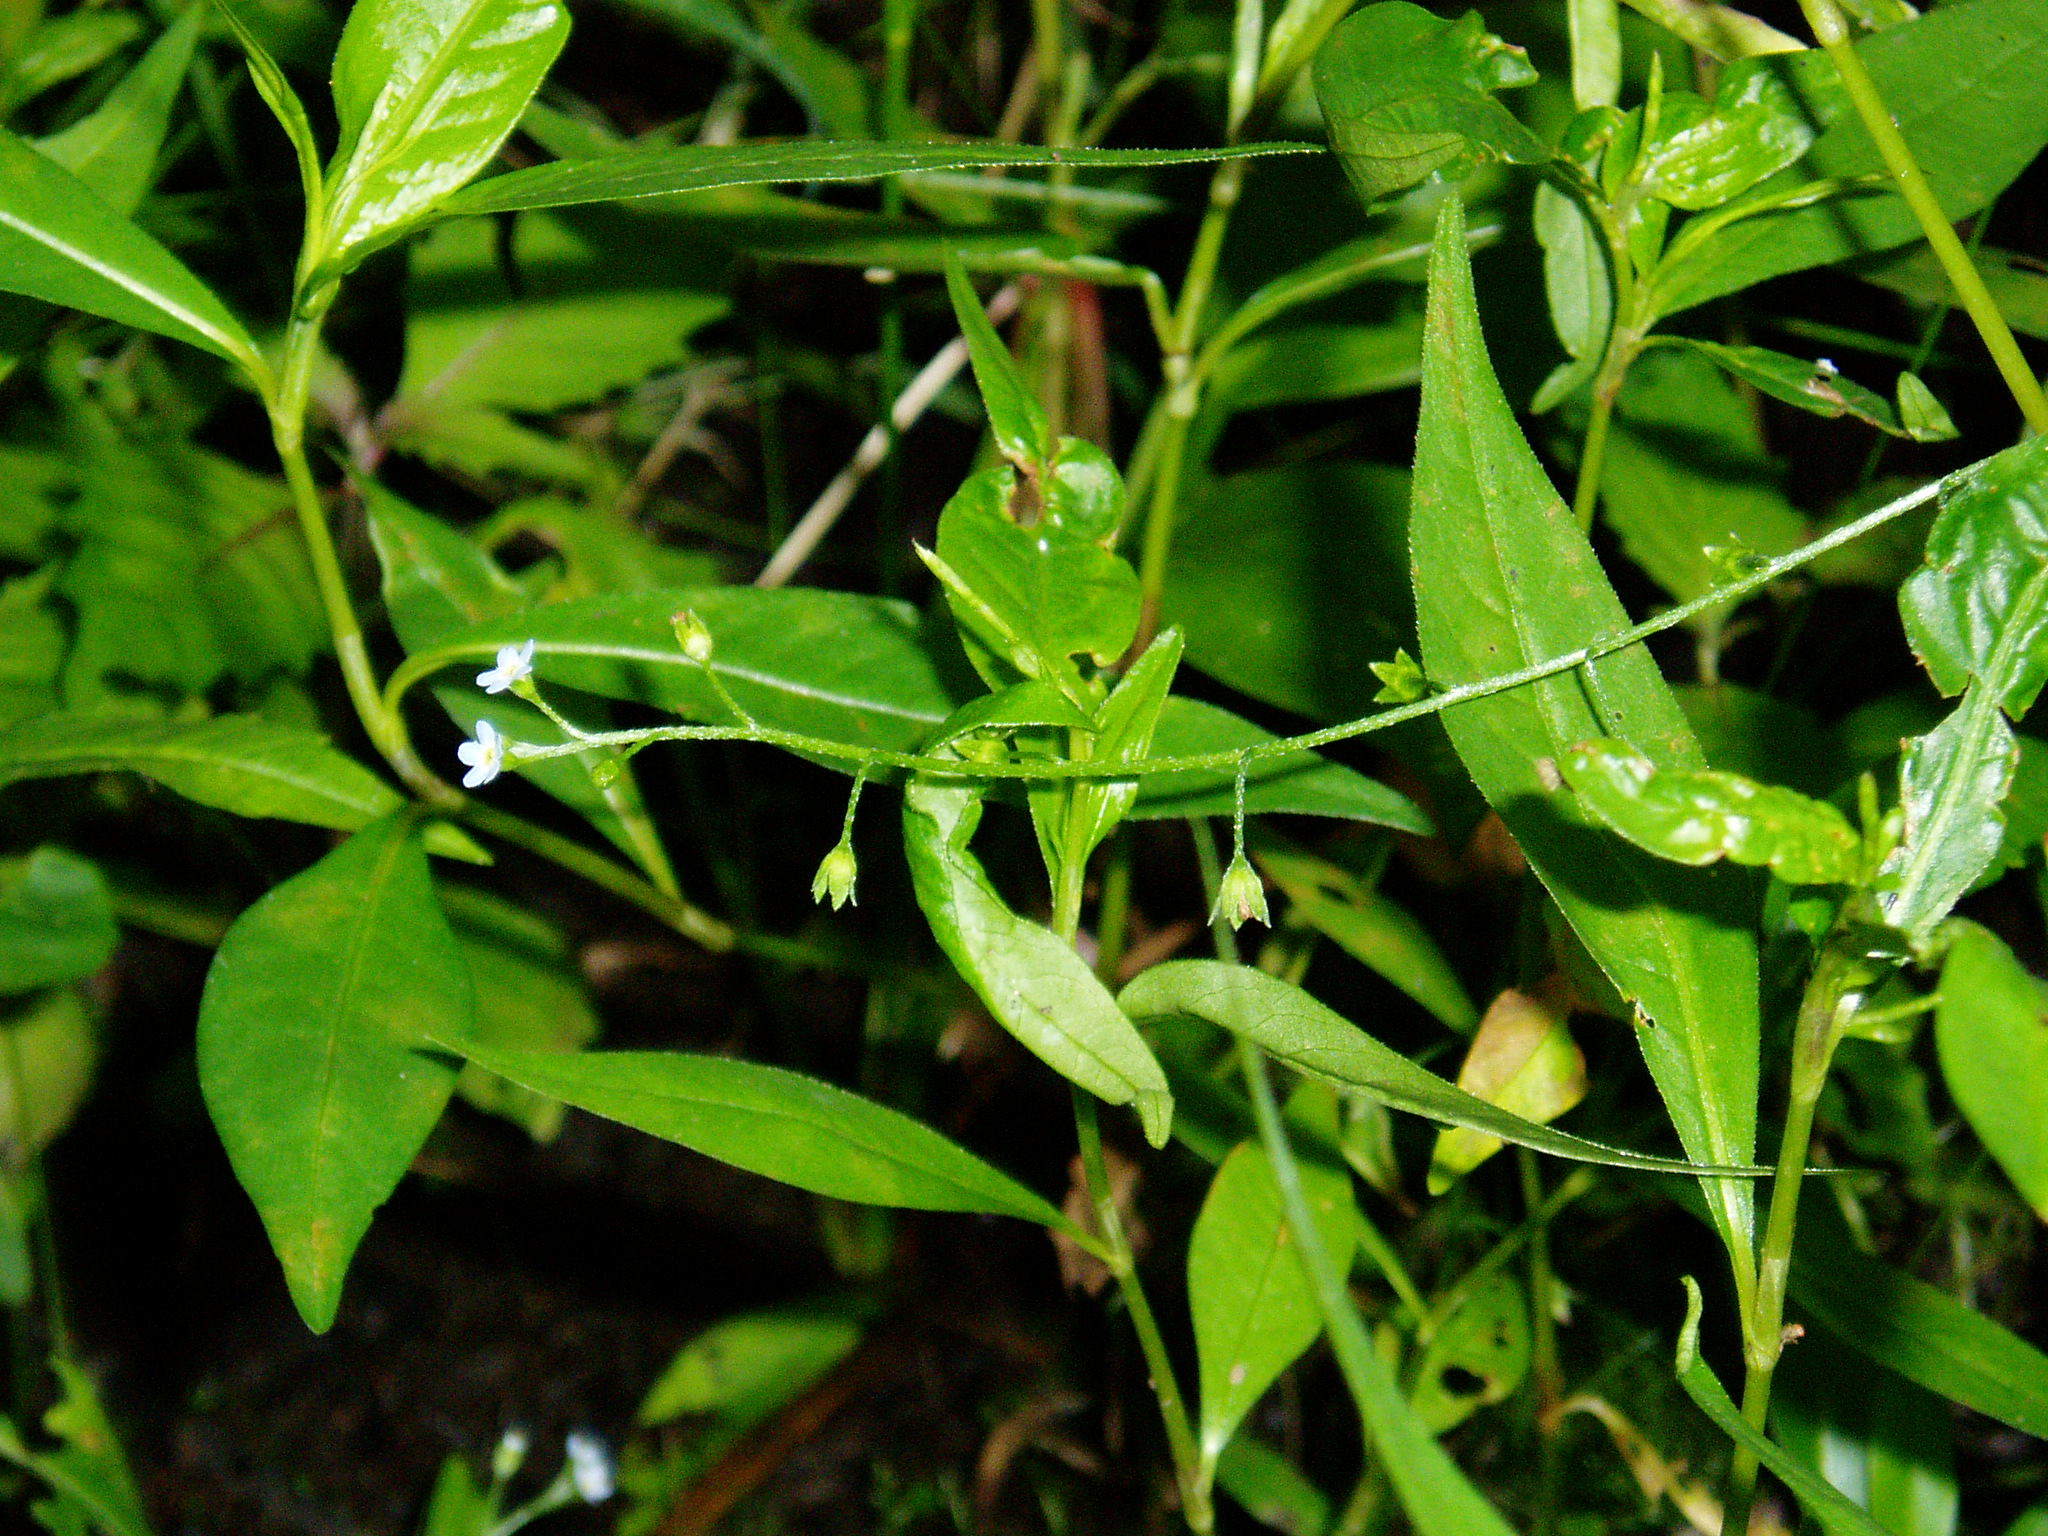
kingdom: Plantae
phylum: Tracheophyta
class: Magnoliopsida
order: Boraginales
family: Boraginaceae
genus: Myosotis
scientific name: Myosotis laxa
